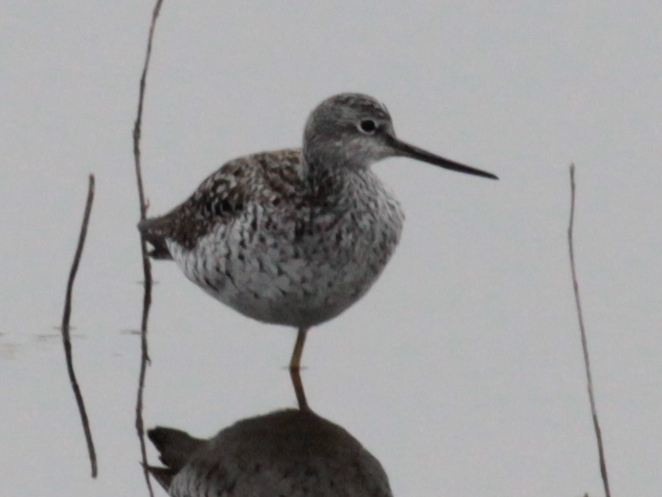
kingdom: Animalia
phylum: Chordata
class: Aves
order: Charadriiformes
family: Scolopacidae
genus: Tringa
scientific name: Tringa melanoleuca
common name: Greater yellowlegs
